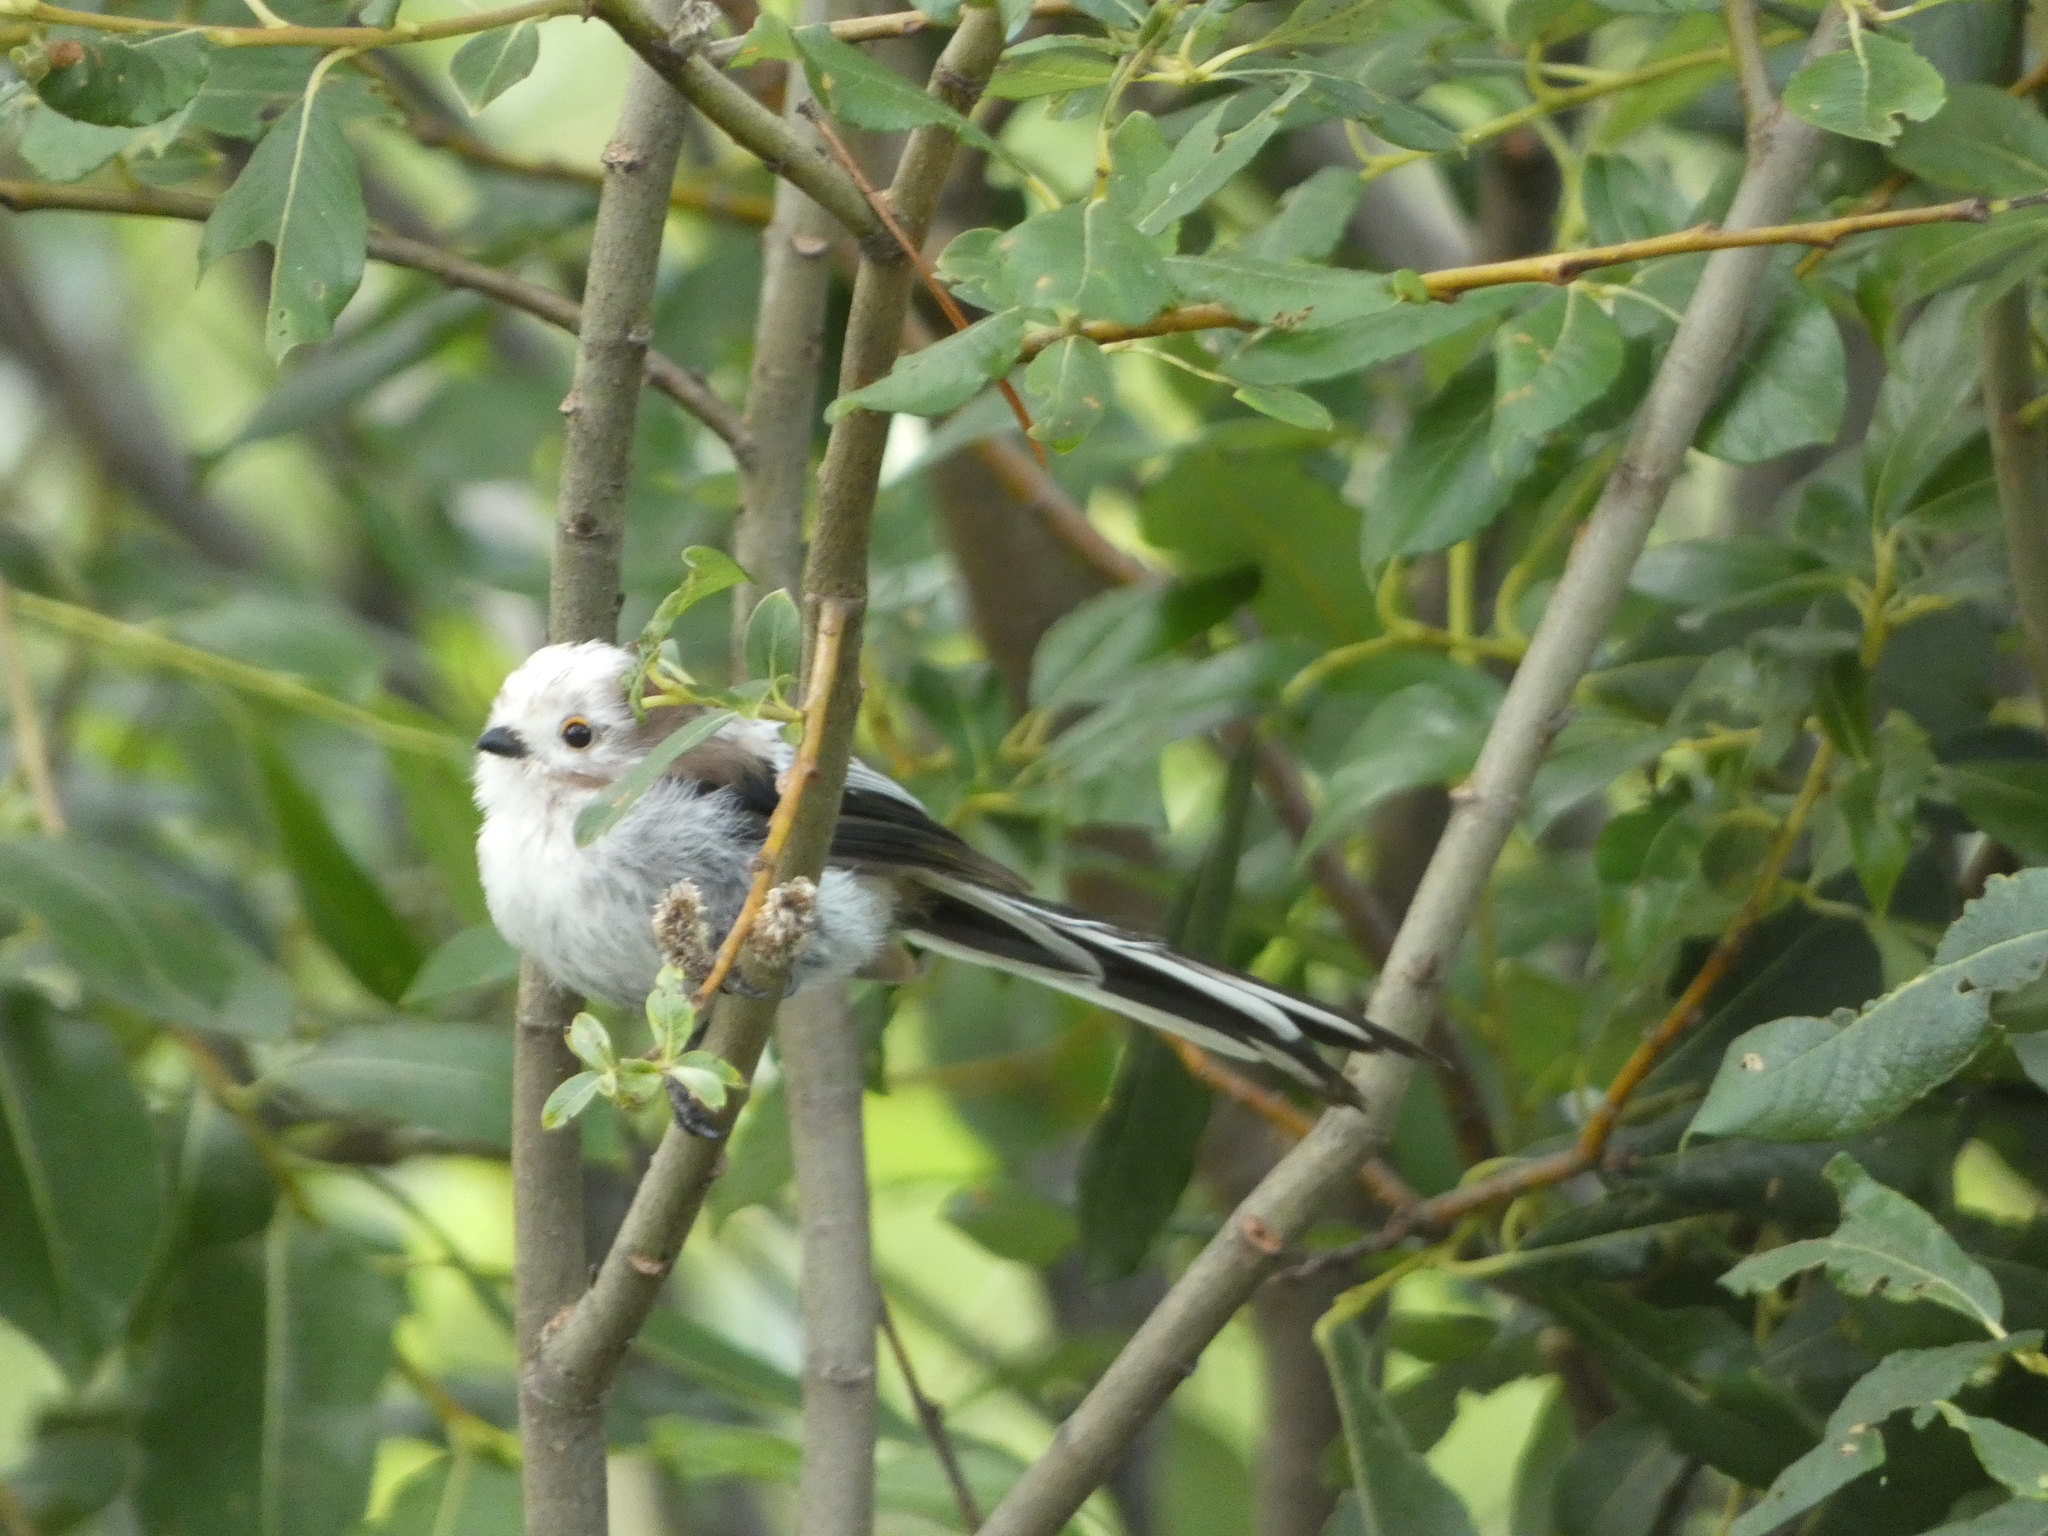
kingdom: Animalia
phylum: Chordata
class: Aves
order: Passeriformes
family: Aegithalidae
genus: Aegithalos
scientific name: Aegithalos caudatus
